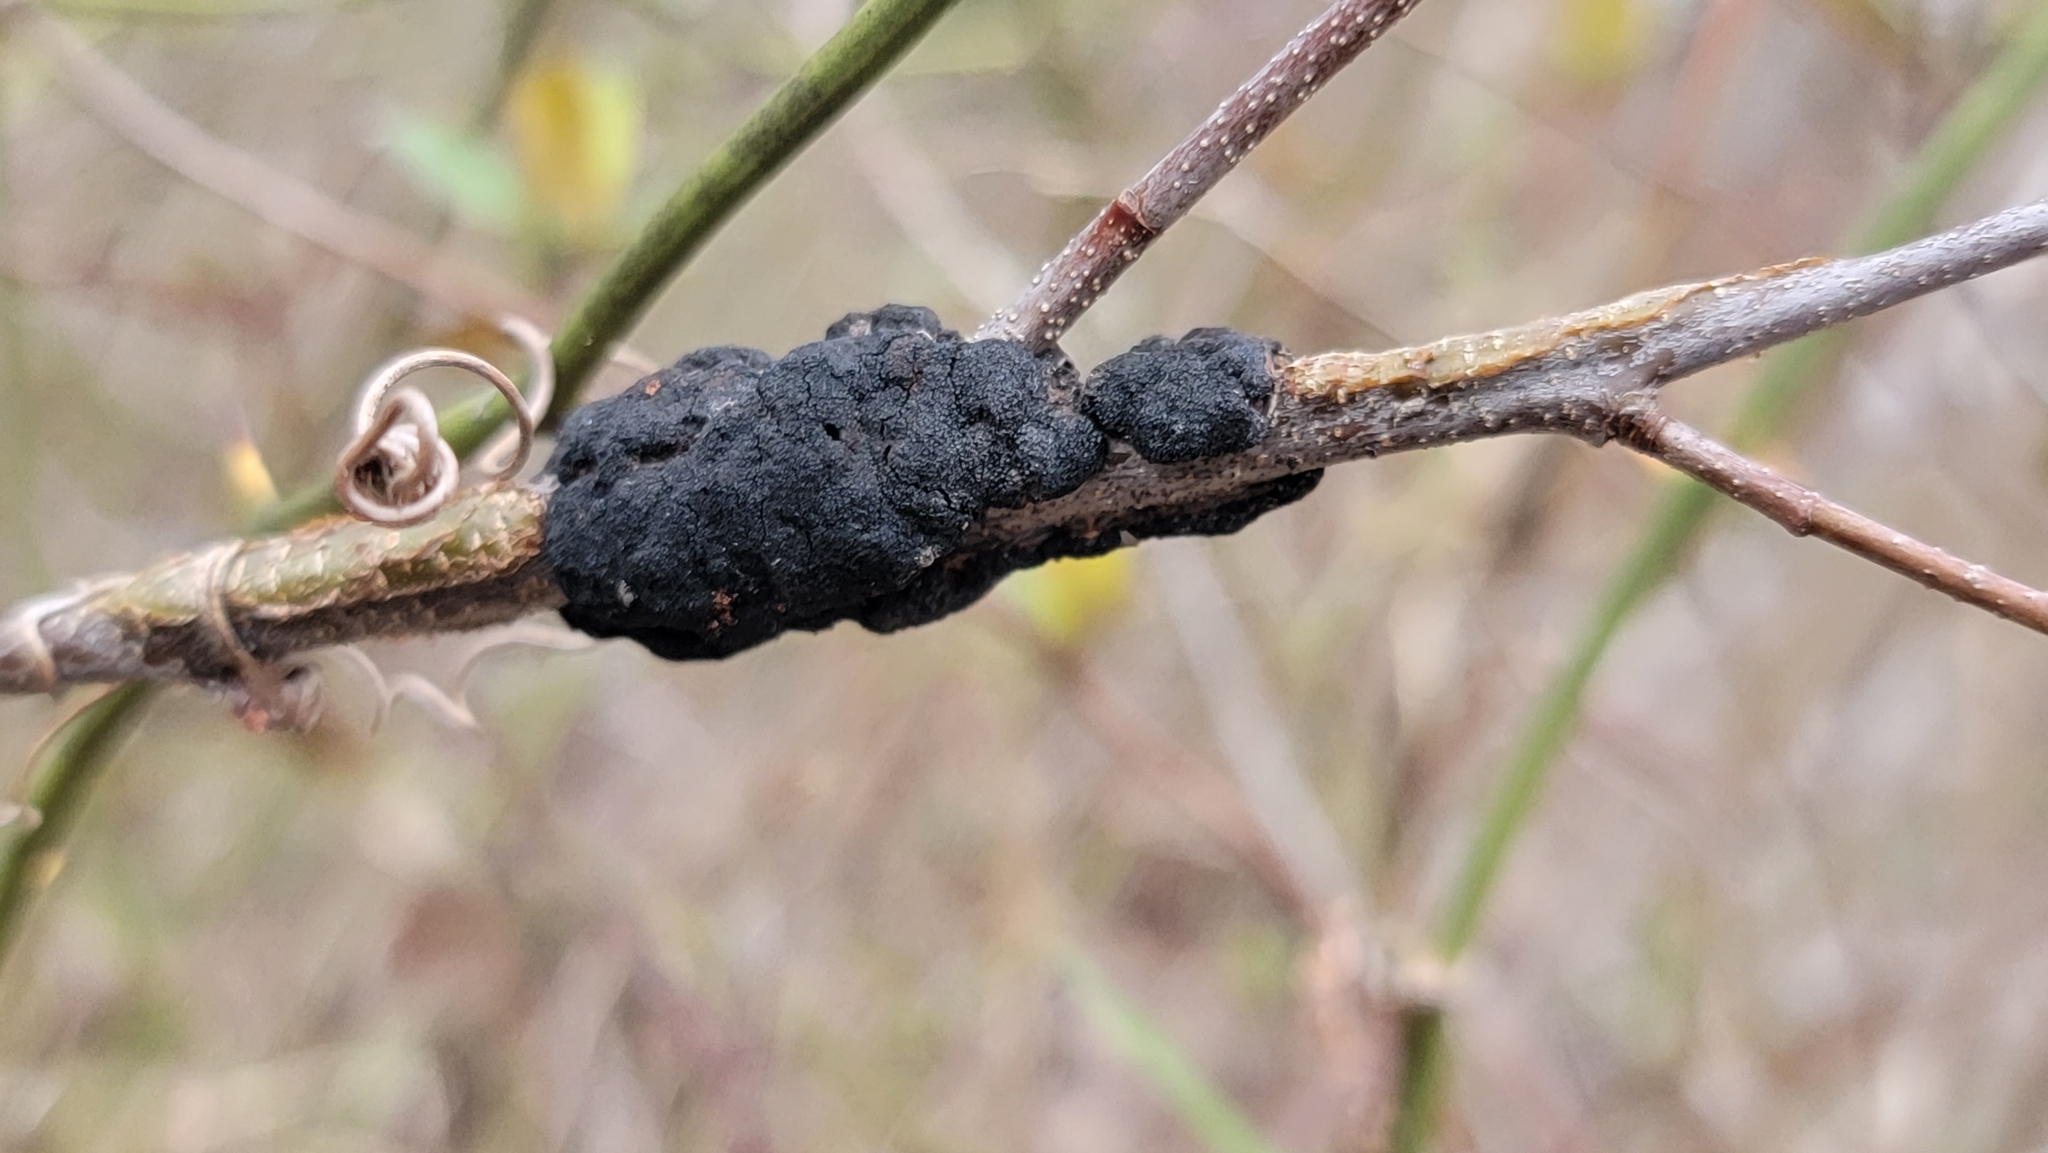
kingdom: Fungi
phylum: Ascomycota
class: Dothideomycetes
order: Venturiales
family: Venturiaceae
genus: Apiosporina
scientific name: Apiosporina morbosa
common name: Black knot
